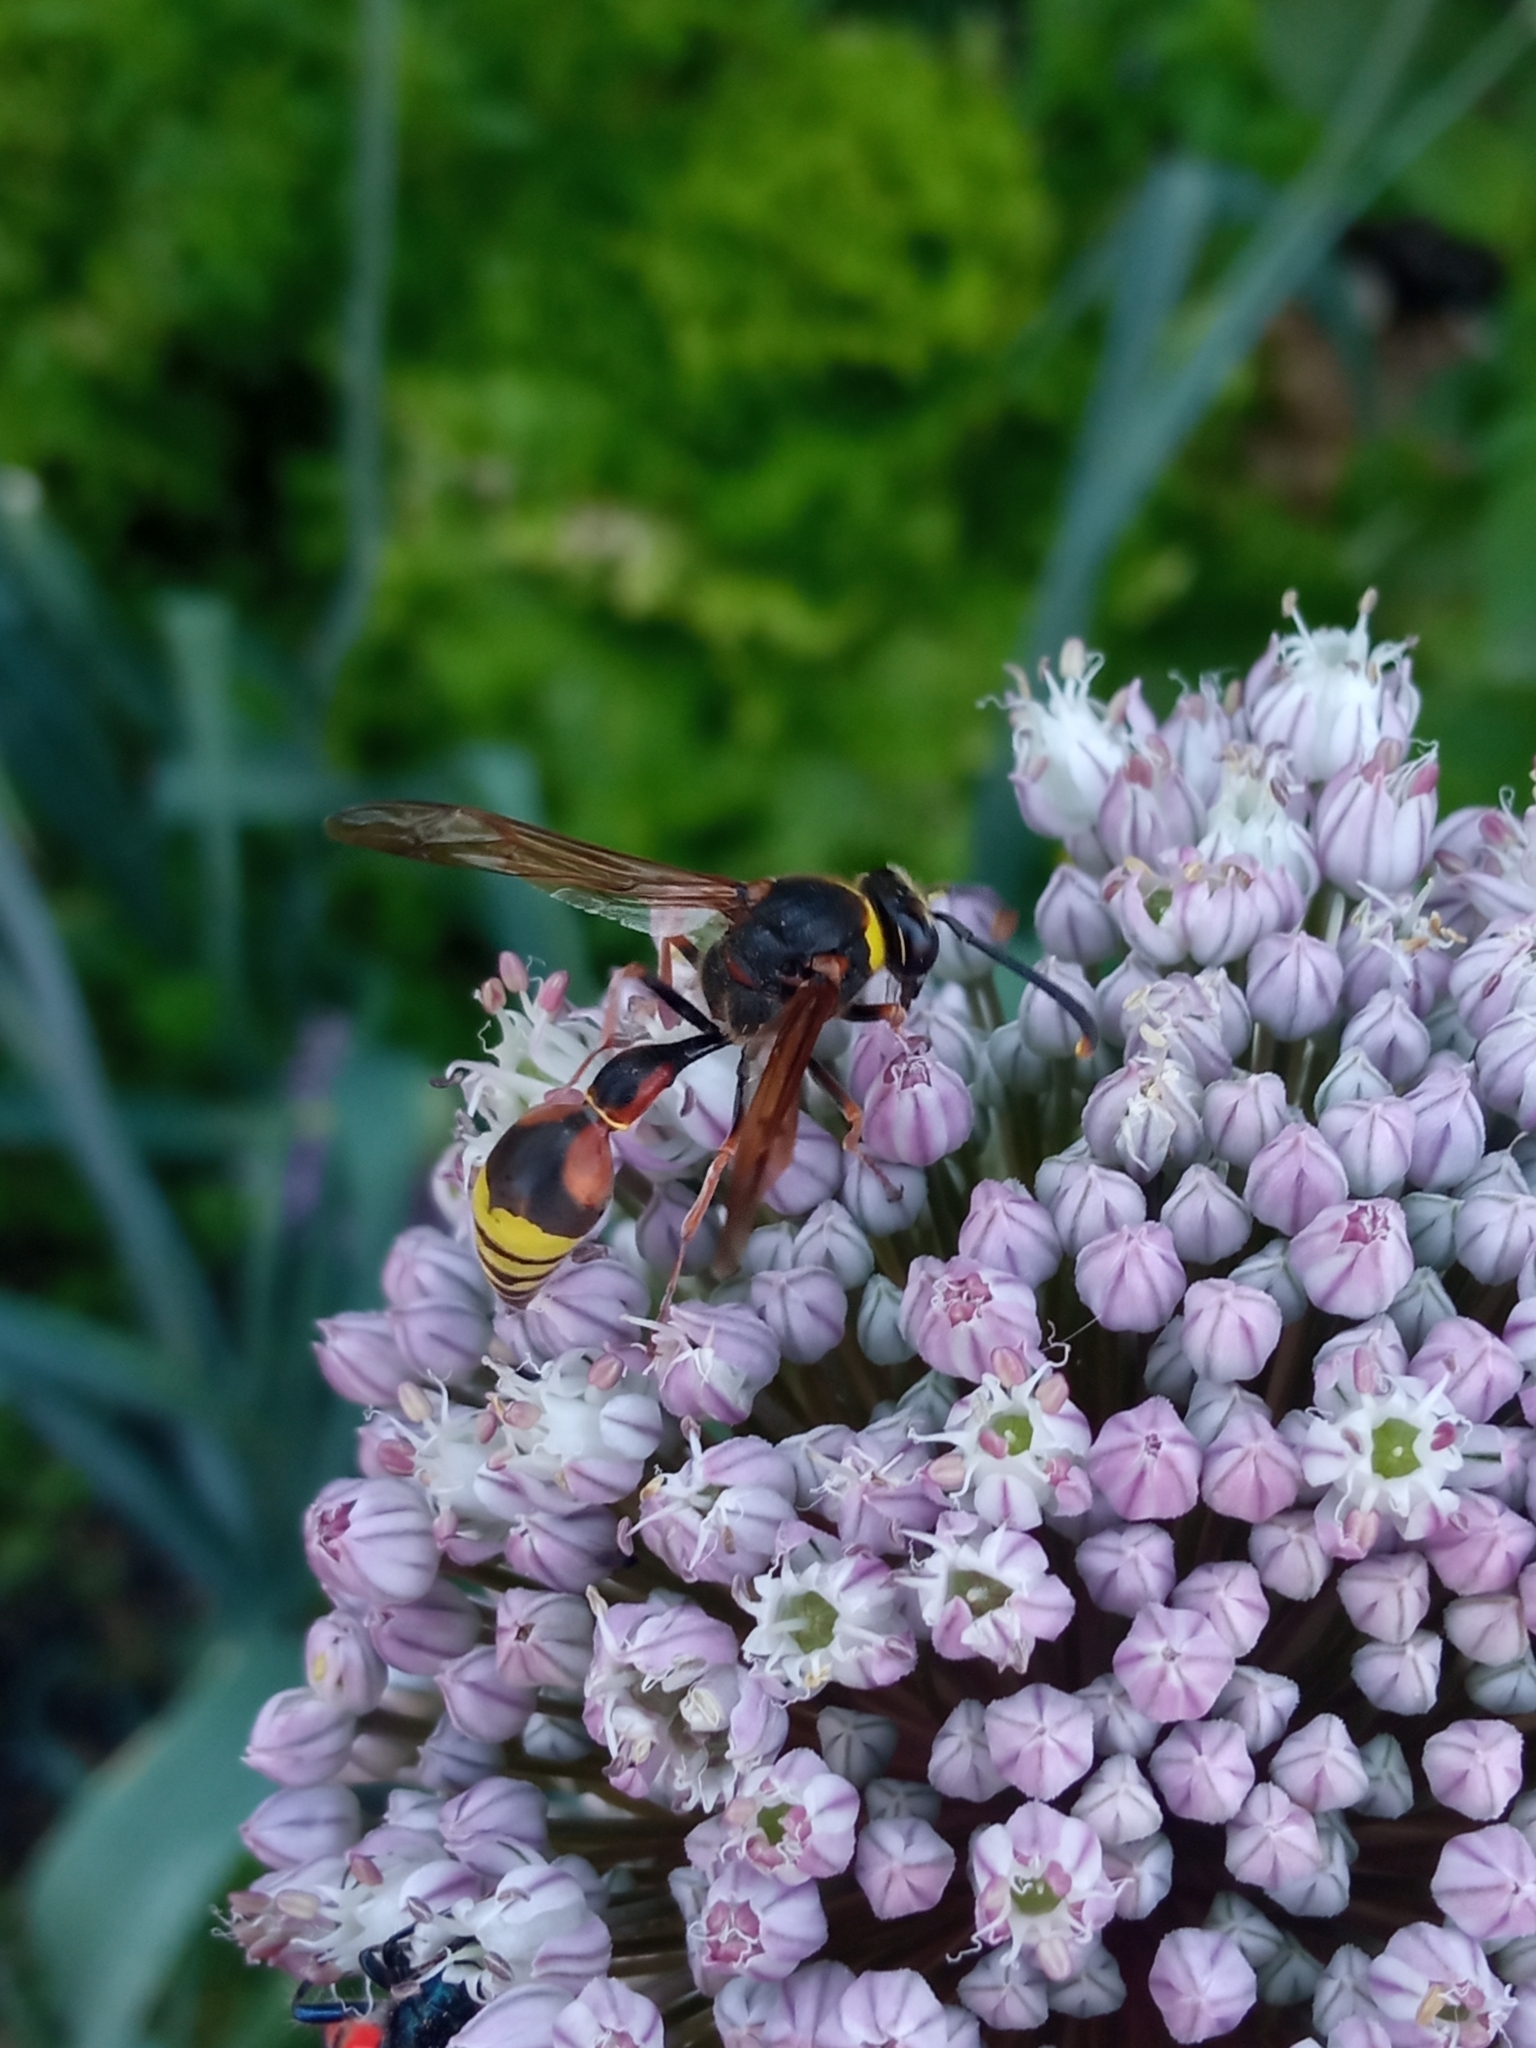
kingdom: Animalia
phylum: Arthropoda
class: Insecta
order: Hymenoptera
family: Eumenidae
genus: Delta
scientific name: Delta unguiculatum
